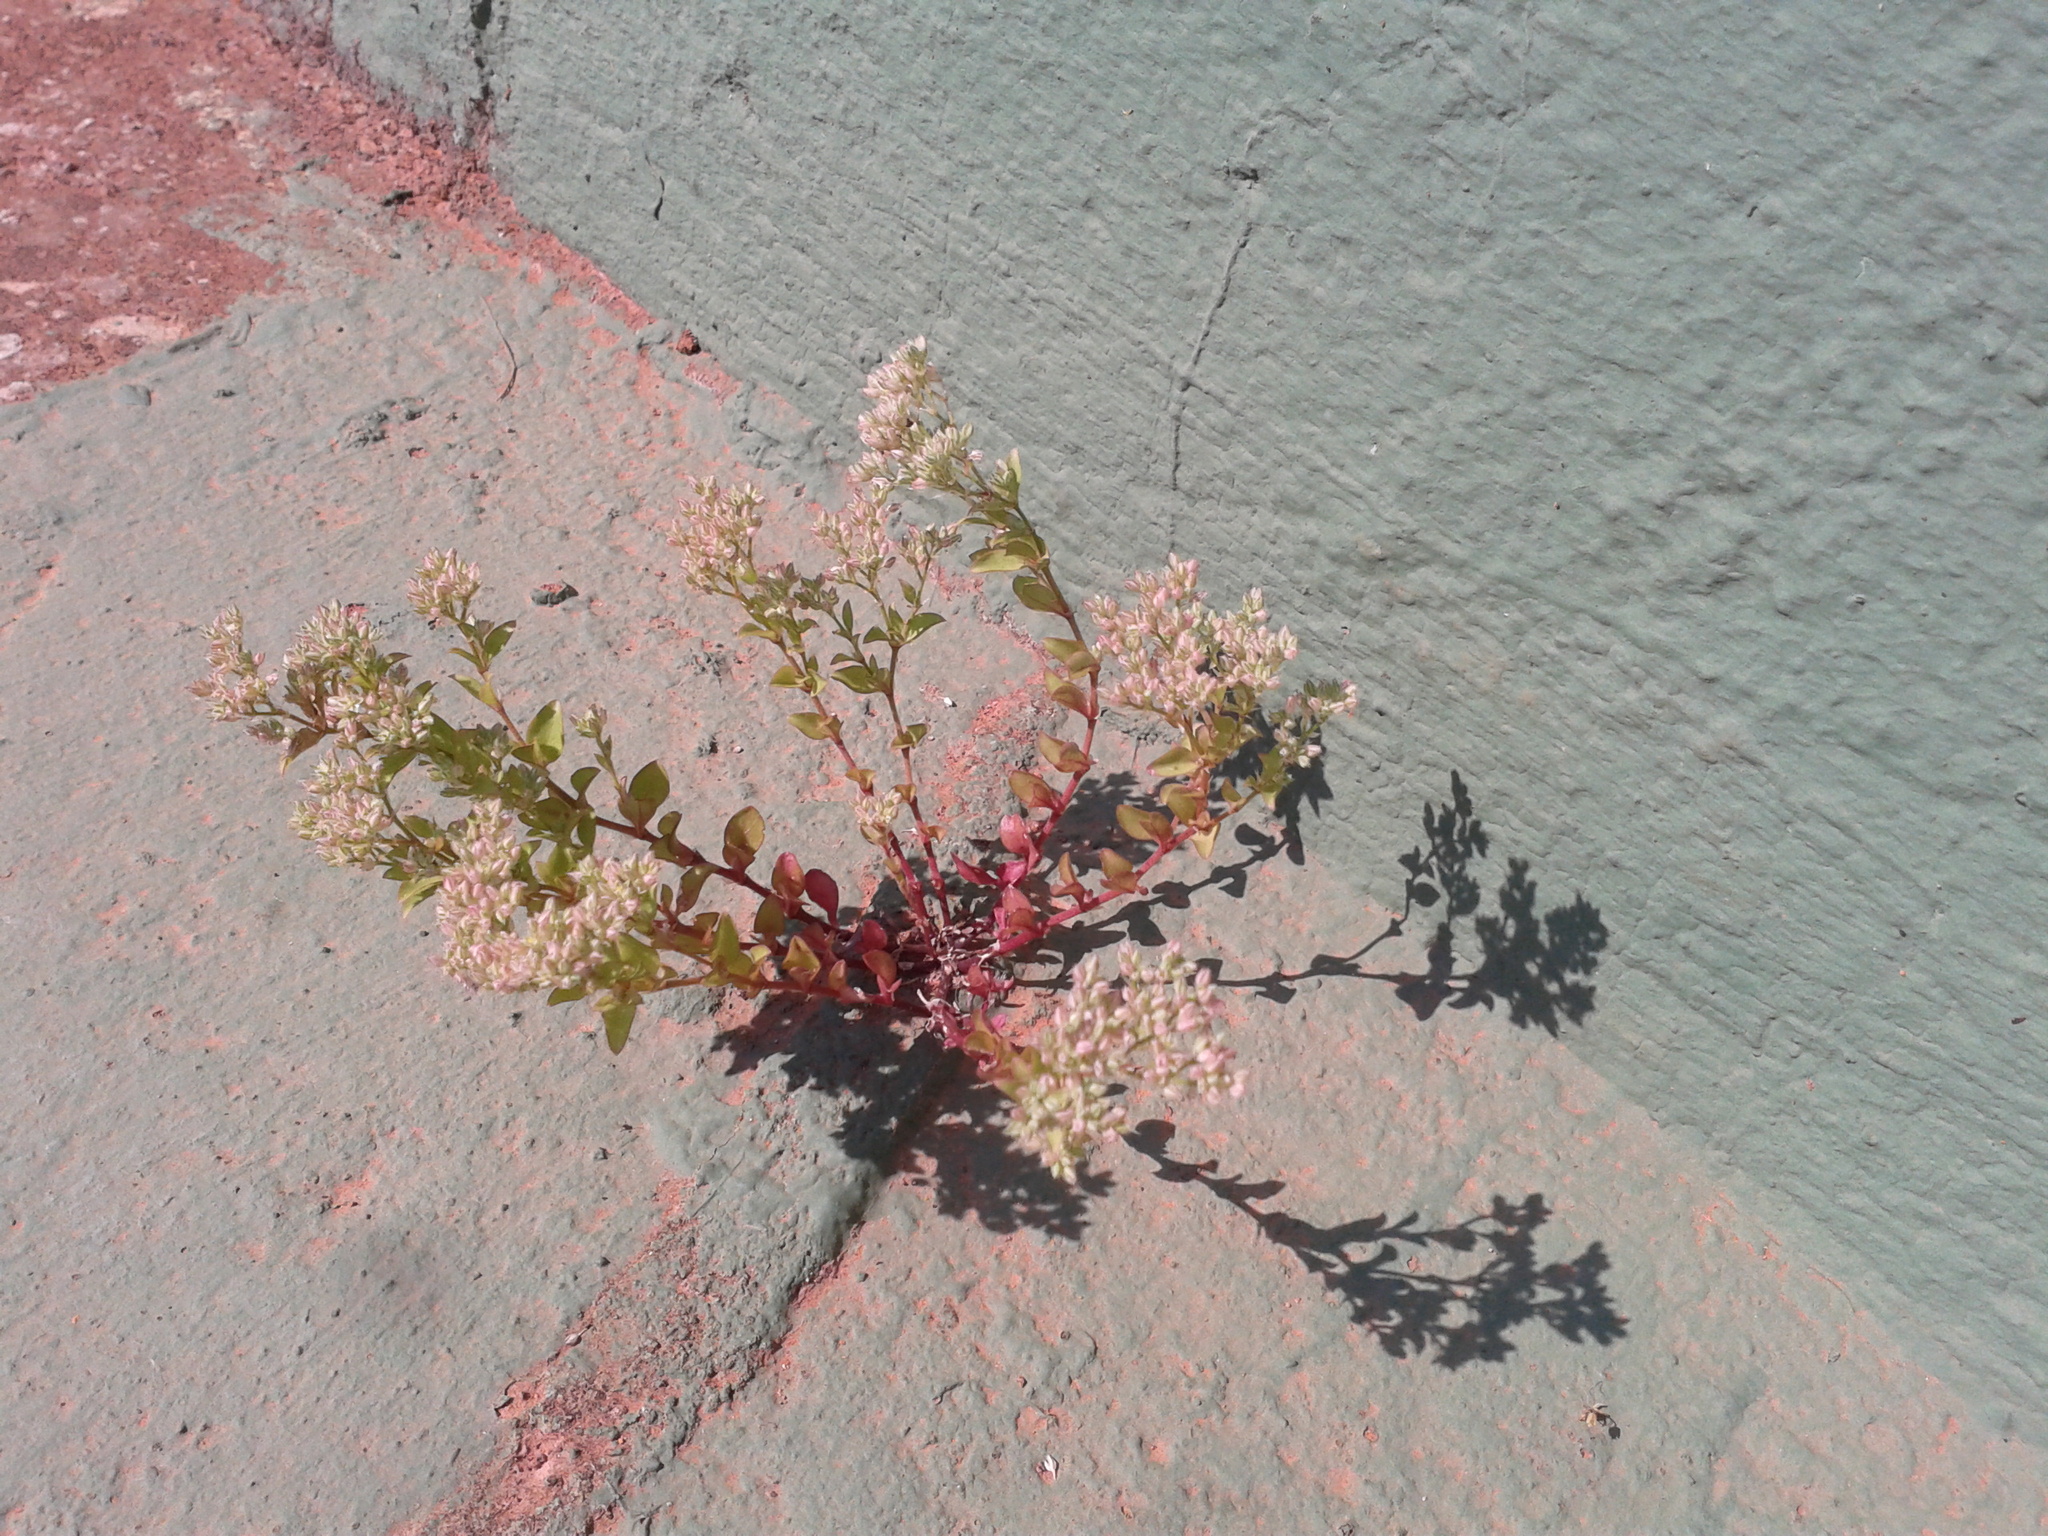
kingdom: Plantae
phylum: Tracheophyta
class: Magnoliopsida
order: Caryophyllales
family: Caryophyllaceae
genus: Polycarpon
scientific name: Polycarpon tetraphyllum
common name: Four-leaved all-seed
